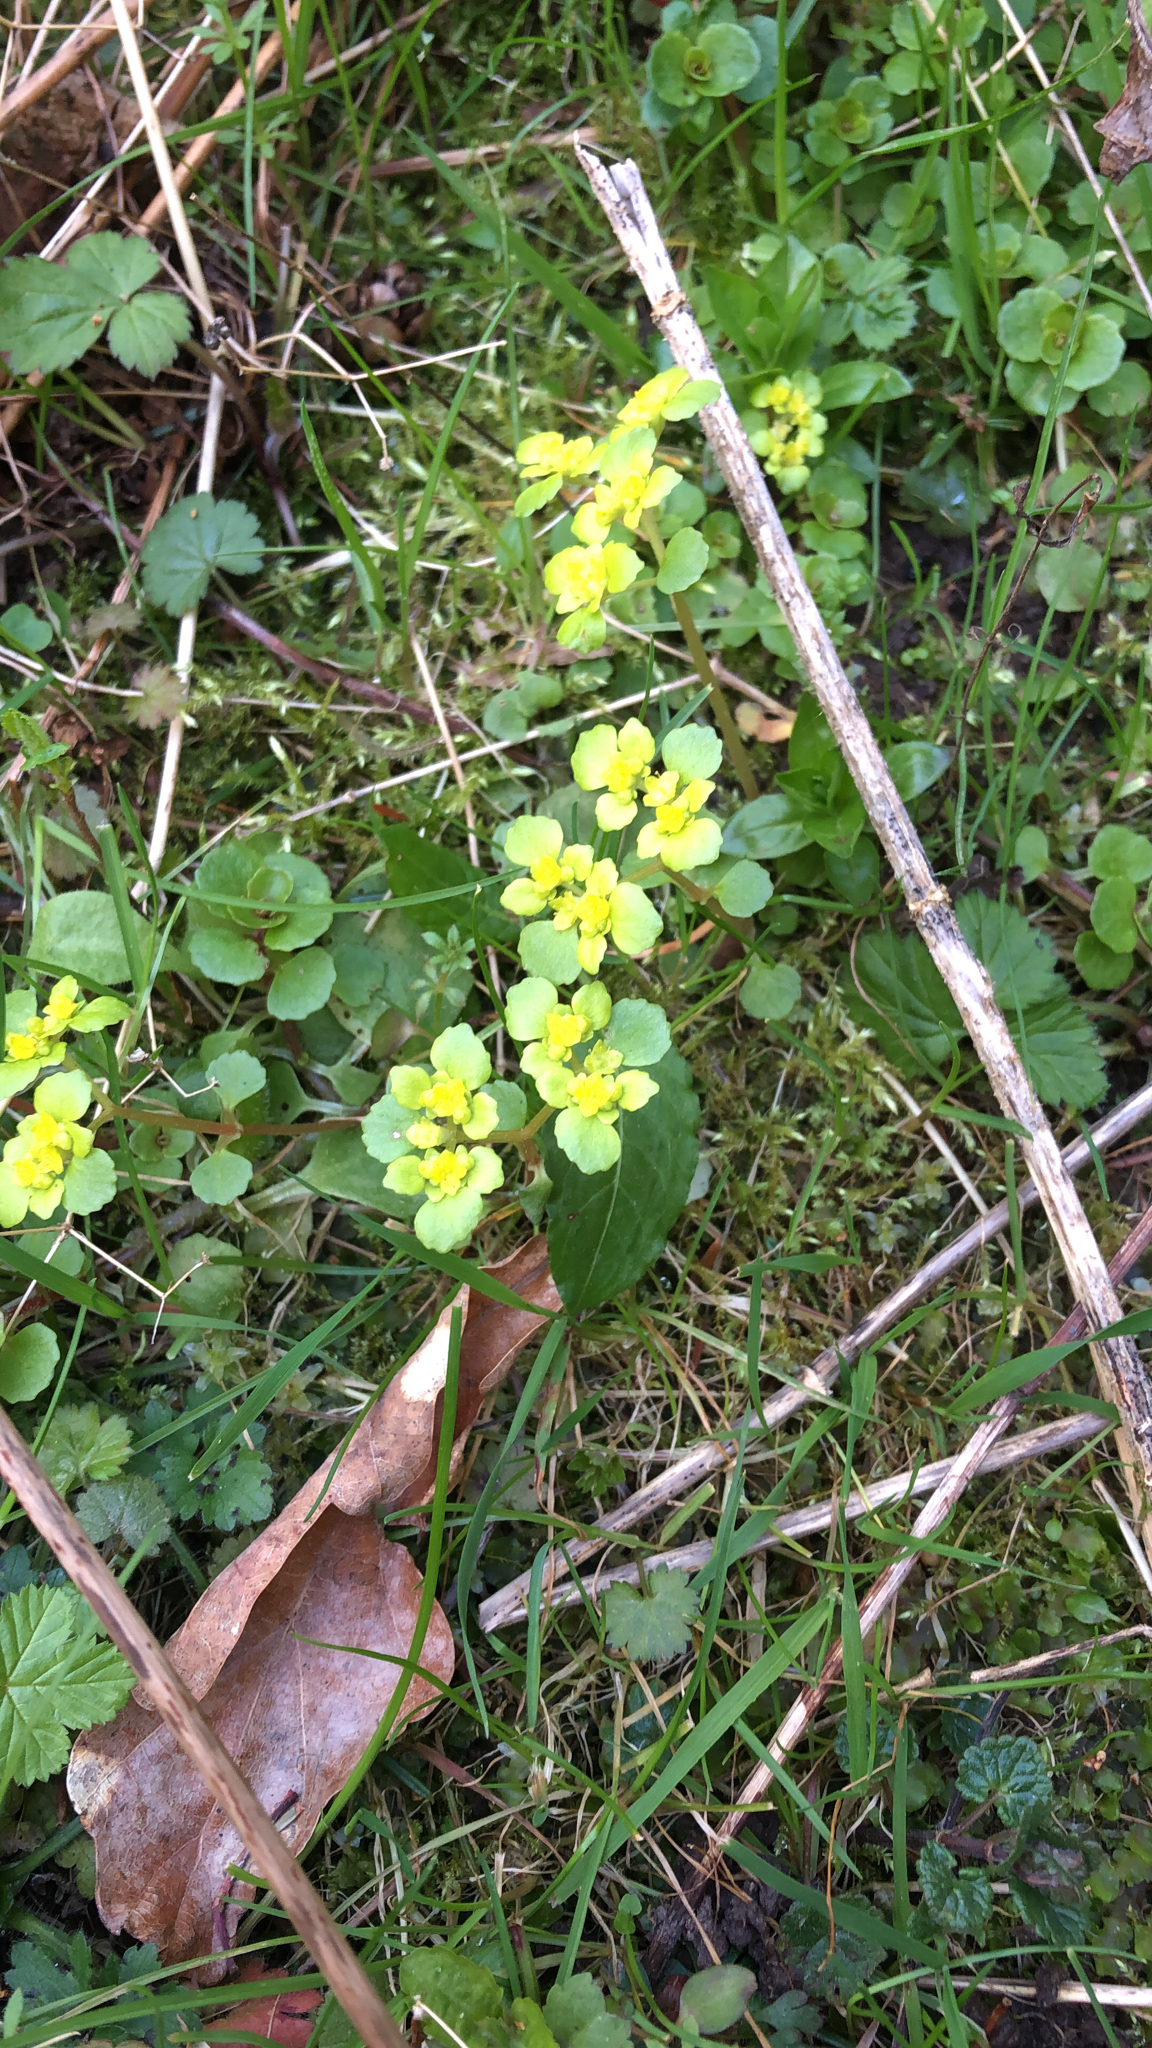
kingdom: Plantae
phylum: Tracheophyta
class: Magnoliopsida
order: Saxifragales
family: Saxifragaceae
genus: Chrysosplenium
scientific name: Chrysosplenium oppositifolium
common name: Opposite-leaved golden-saxifrage
